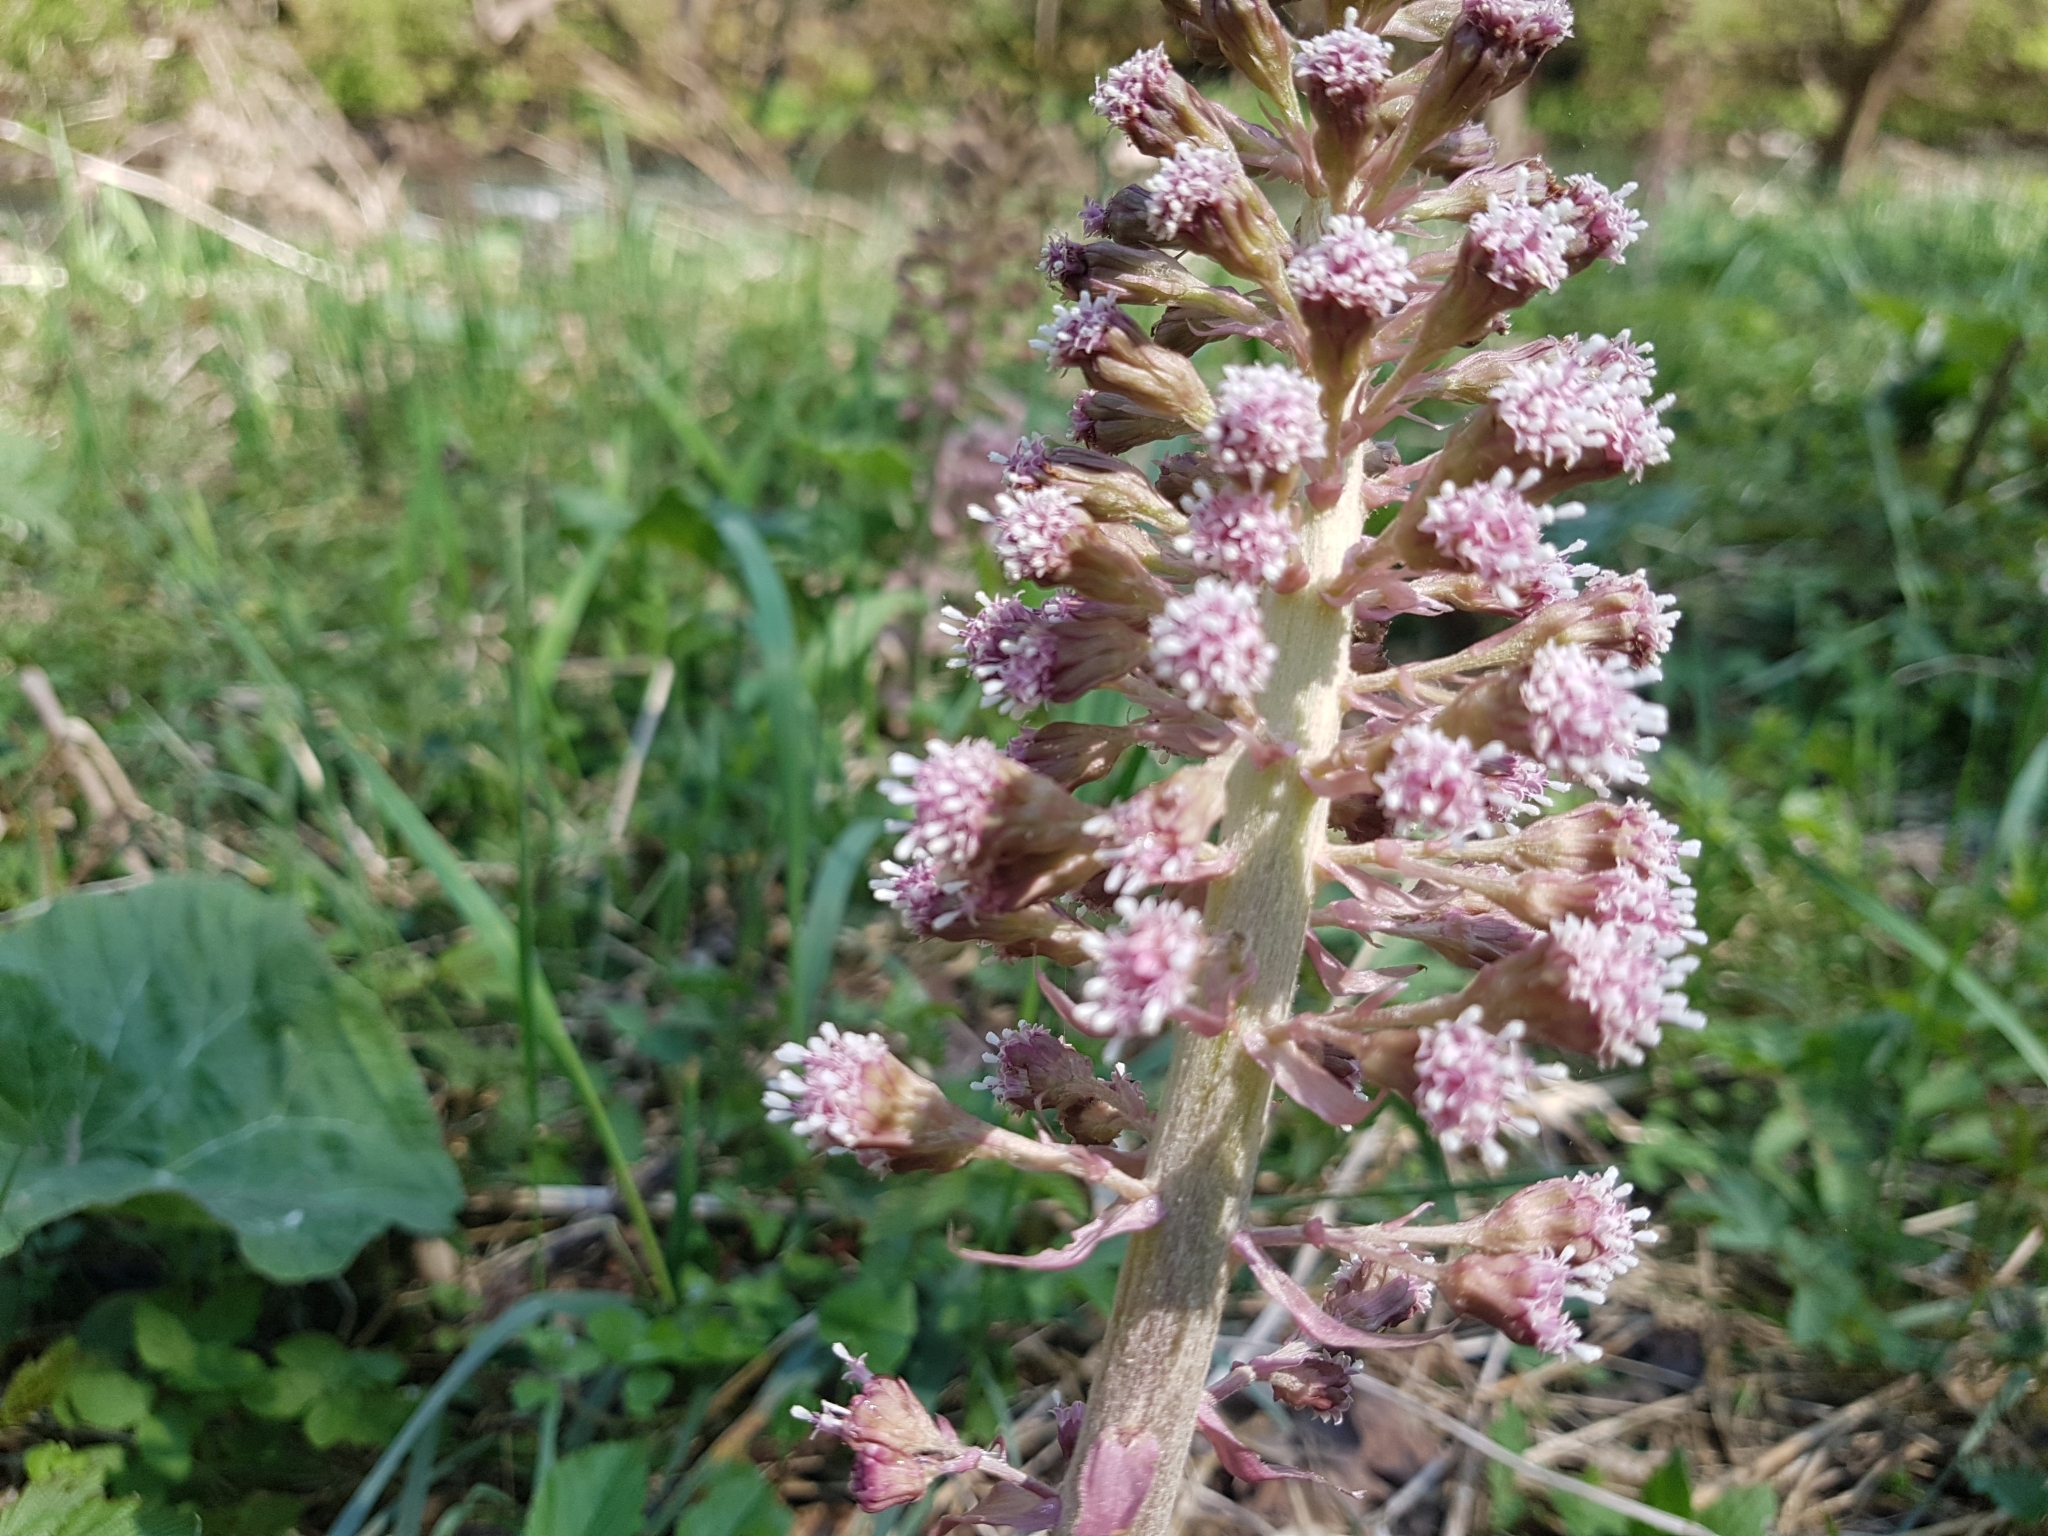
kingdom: Plantae
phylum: Tracheophyta
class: Magnoliopsida
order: Asterales
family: Asteraceae
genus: Petasites
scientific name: Petasites hybridus
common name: Butterbur
